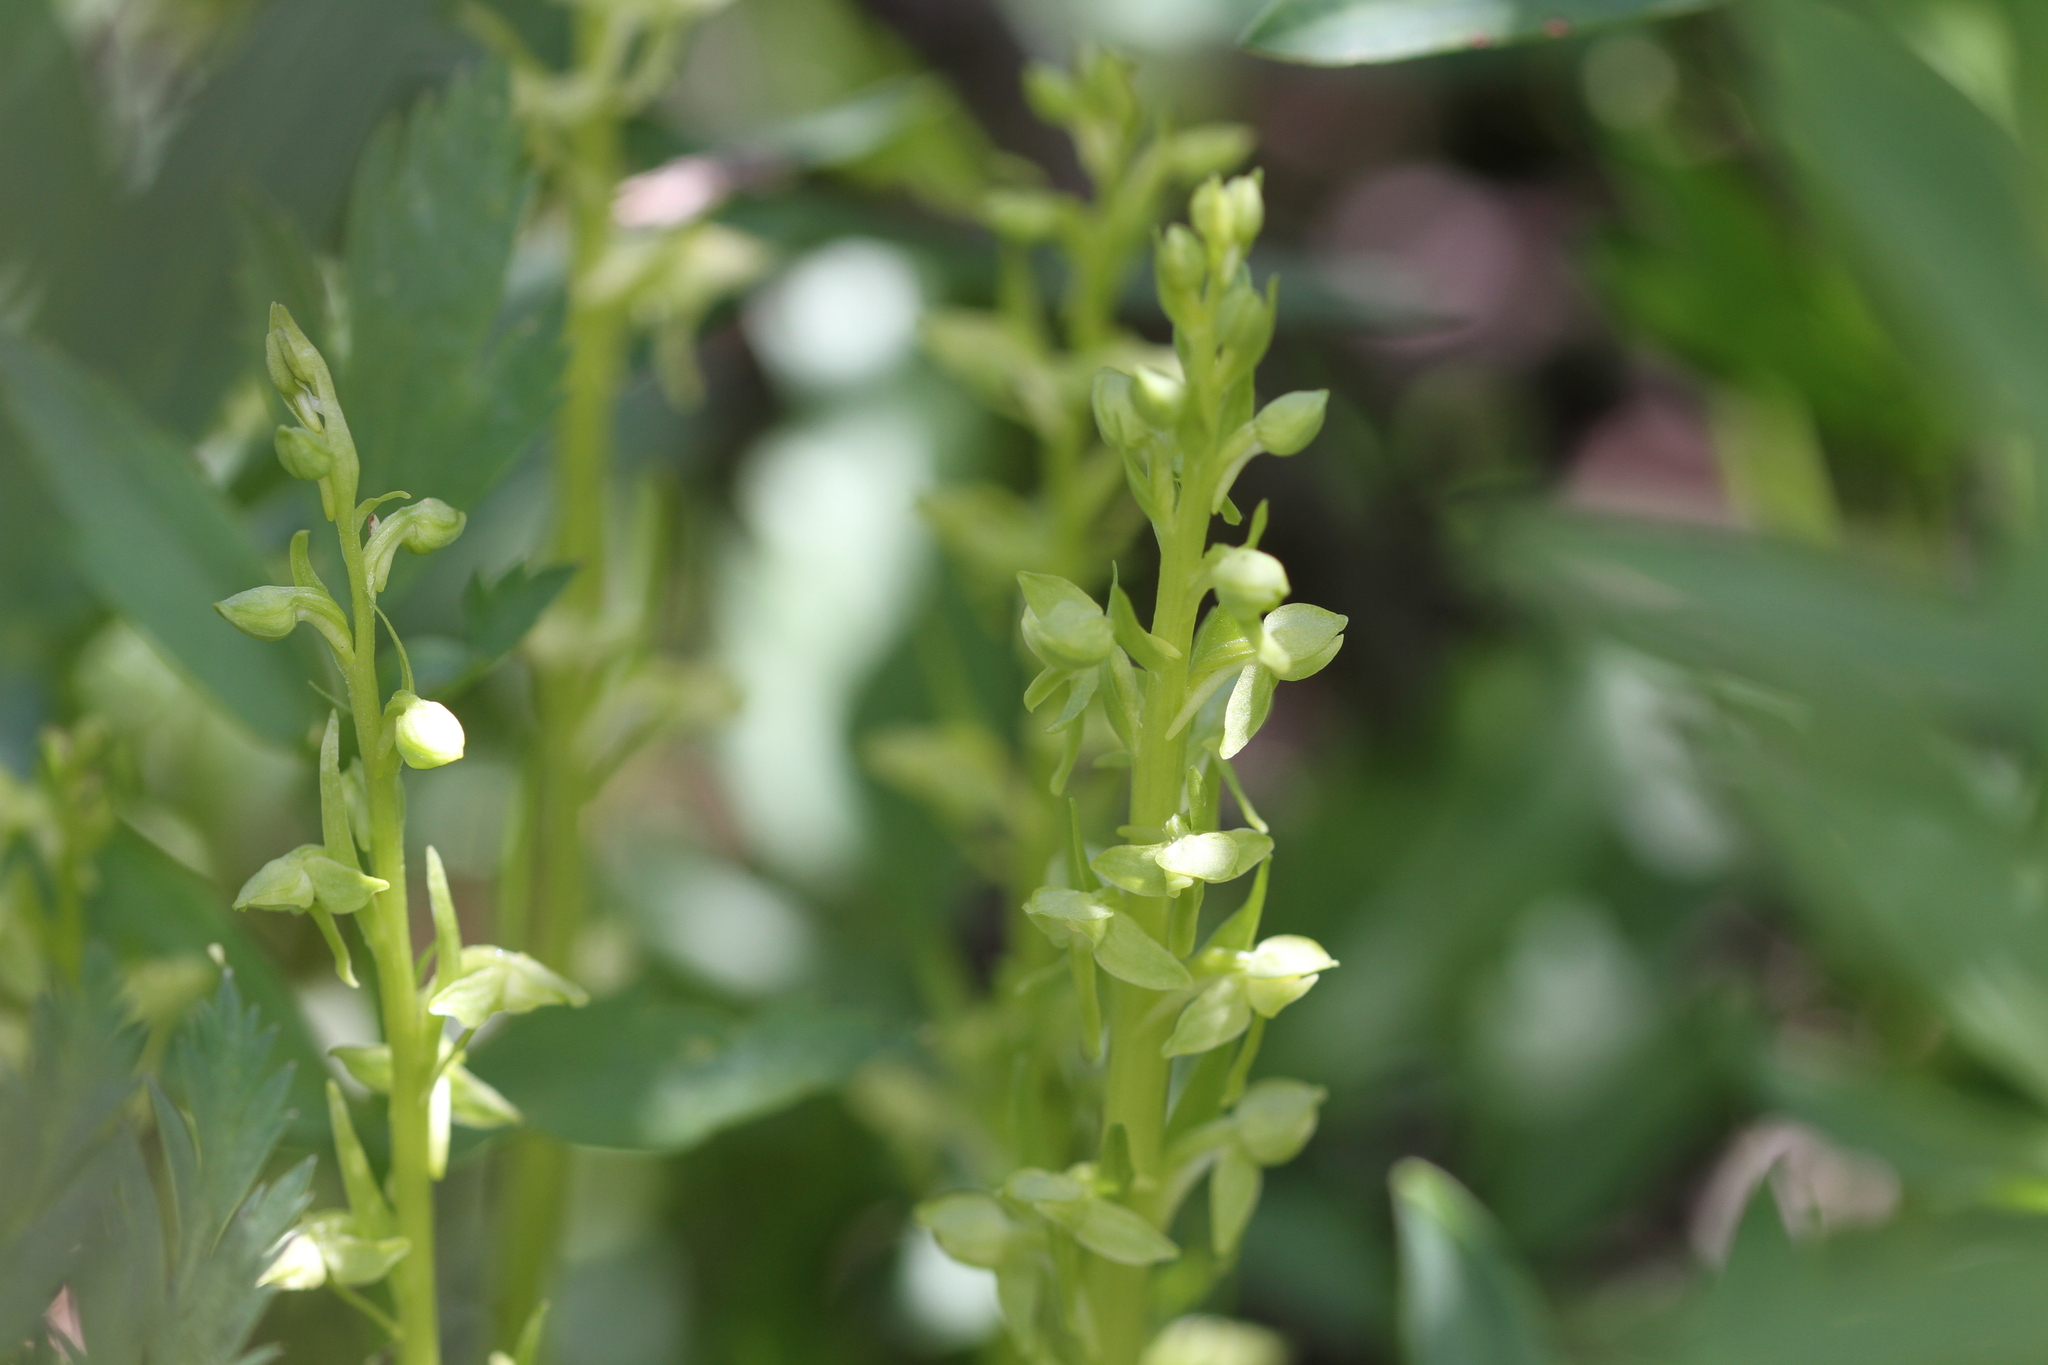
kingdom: Plantae
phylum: Tracheophyta
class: Liliopsida
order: Asparagales
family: Orchidaceae
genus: Platanthera
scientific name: Platanthera sparsiflora
